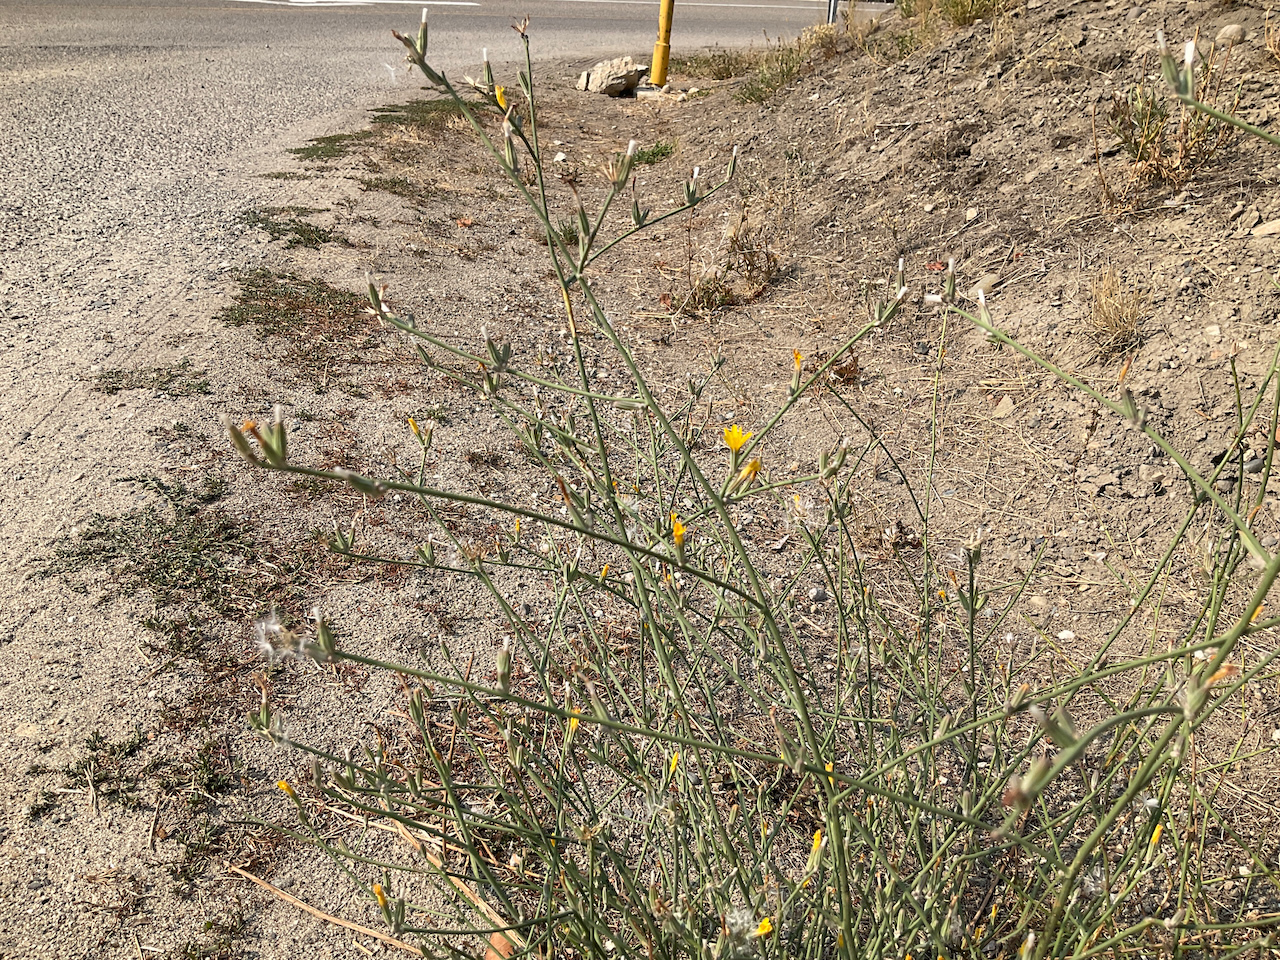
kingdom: Plantae
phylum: Tracheophyta
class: Magnoliopsida
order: Asterales
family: Asteraceae
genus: Chondrilla
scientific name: Chondrilla juncea
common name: Skeleton weed
